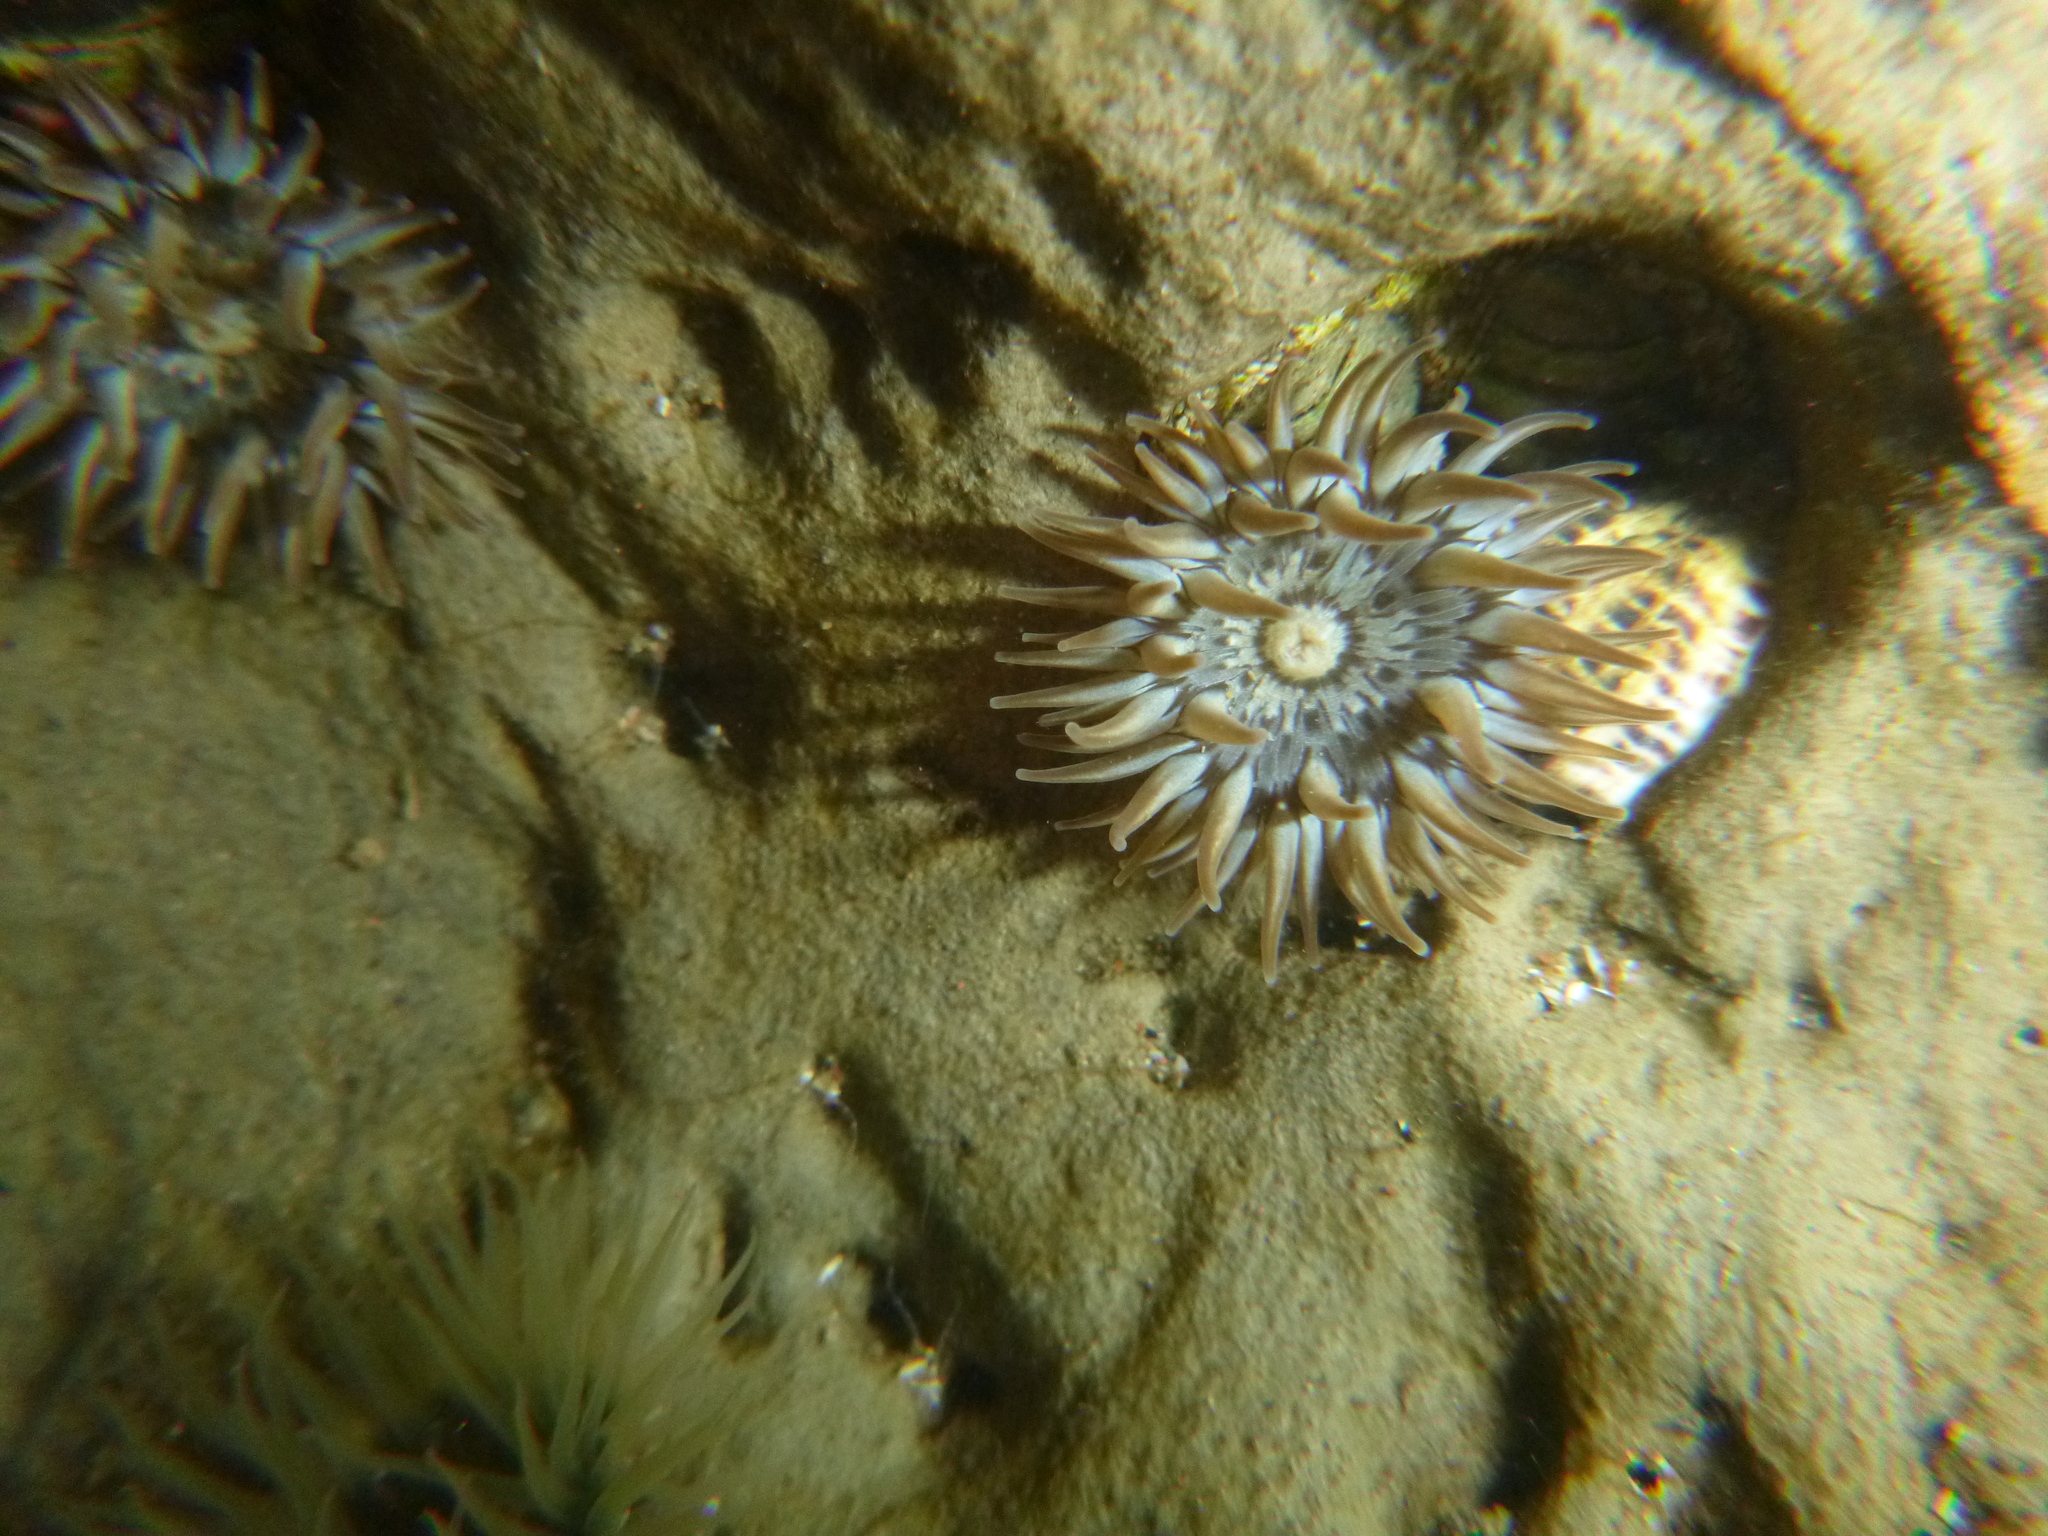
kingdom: Animalia
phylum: Cnidaria
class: Anthozoa
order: Actiniaria
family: Actiniidae
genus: Anthopleura
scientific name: Anthopleura hermaphroditica
